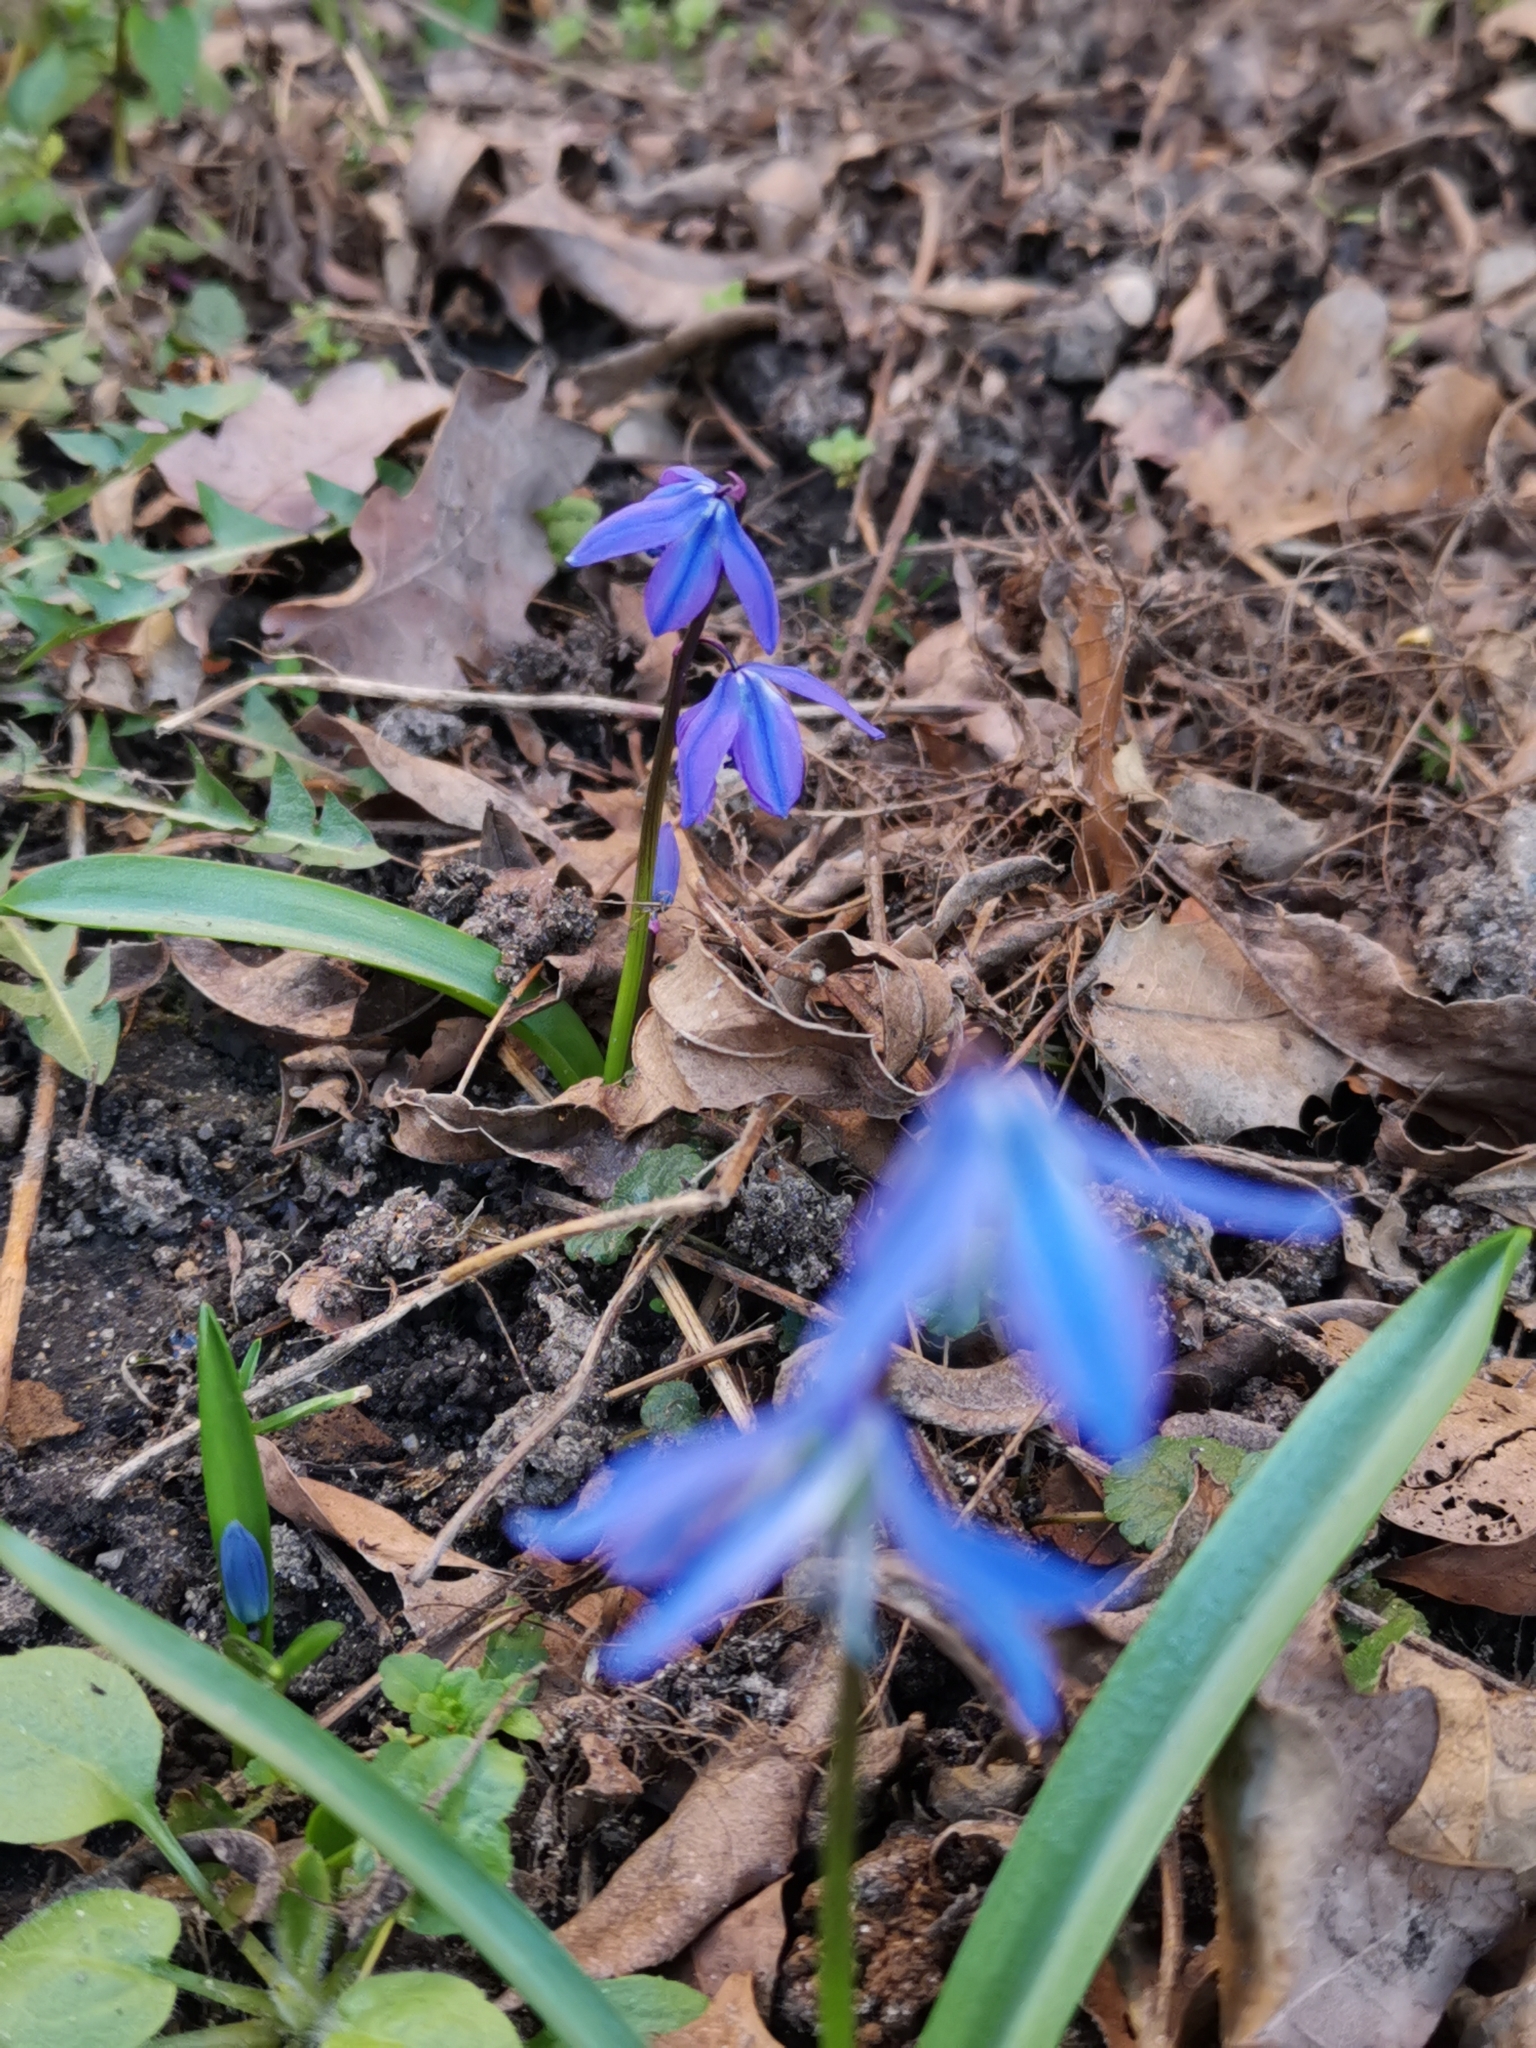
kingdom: Plantae
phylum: Tracheophyta
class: Liliopsida
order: Asparagales
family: Asparagaceae
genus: Scilla
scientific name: Scilla siberica
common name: Siberian squill
